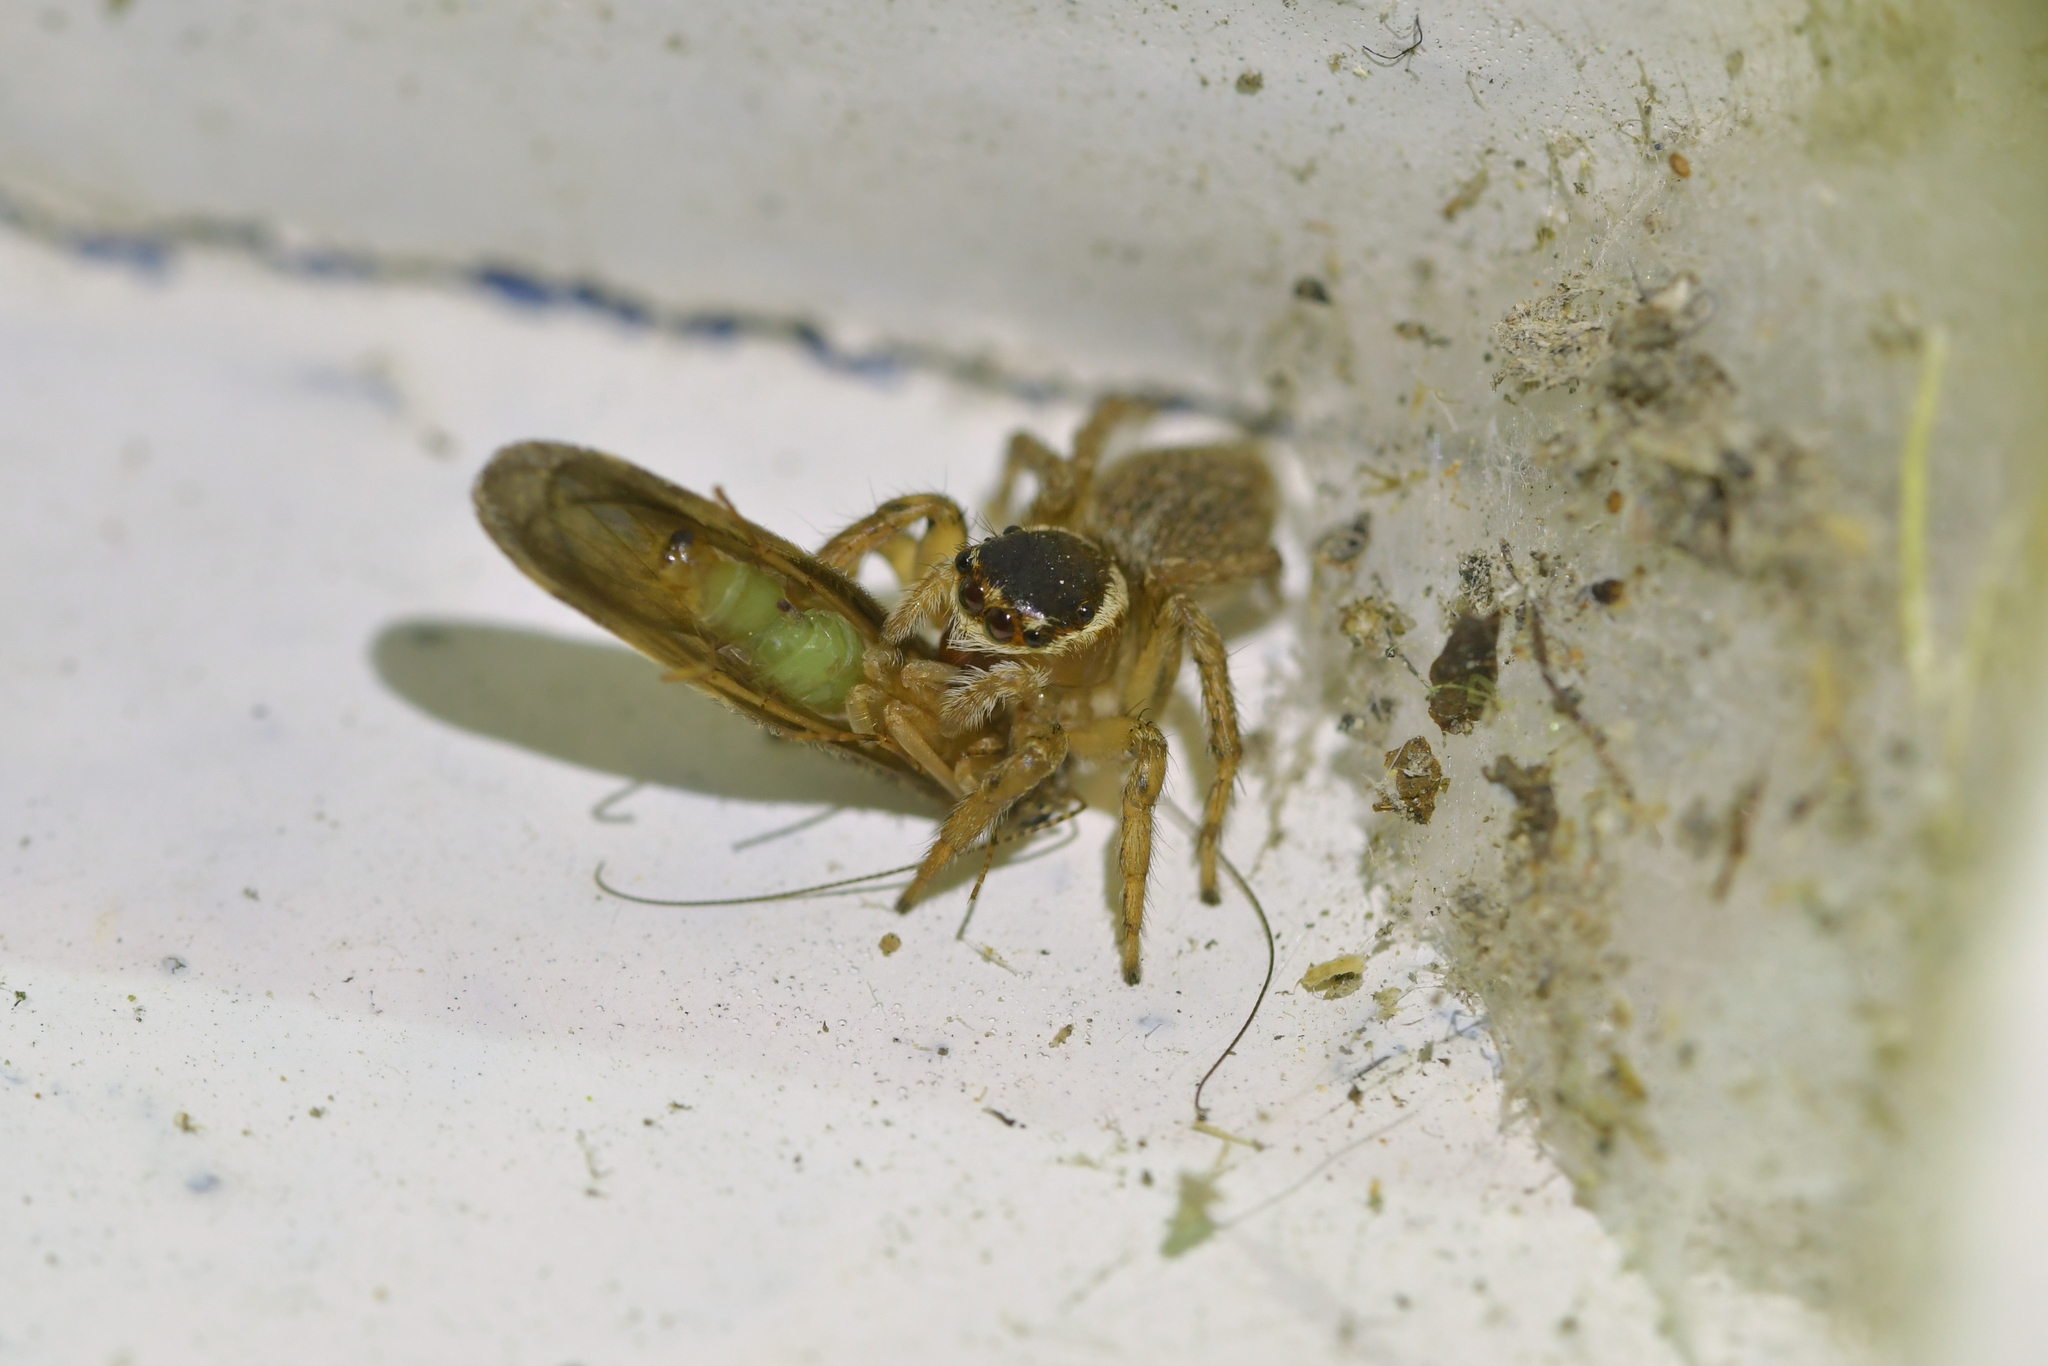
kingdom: Animalia
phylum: Arthropoda
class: Arachnida
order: Araneae
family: Salticidae
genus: Maratus
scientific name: Maratus griseus
